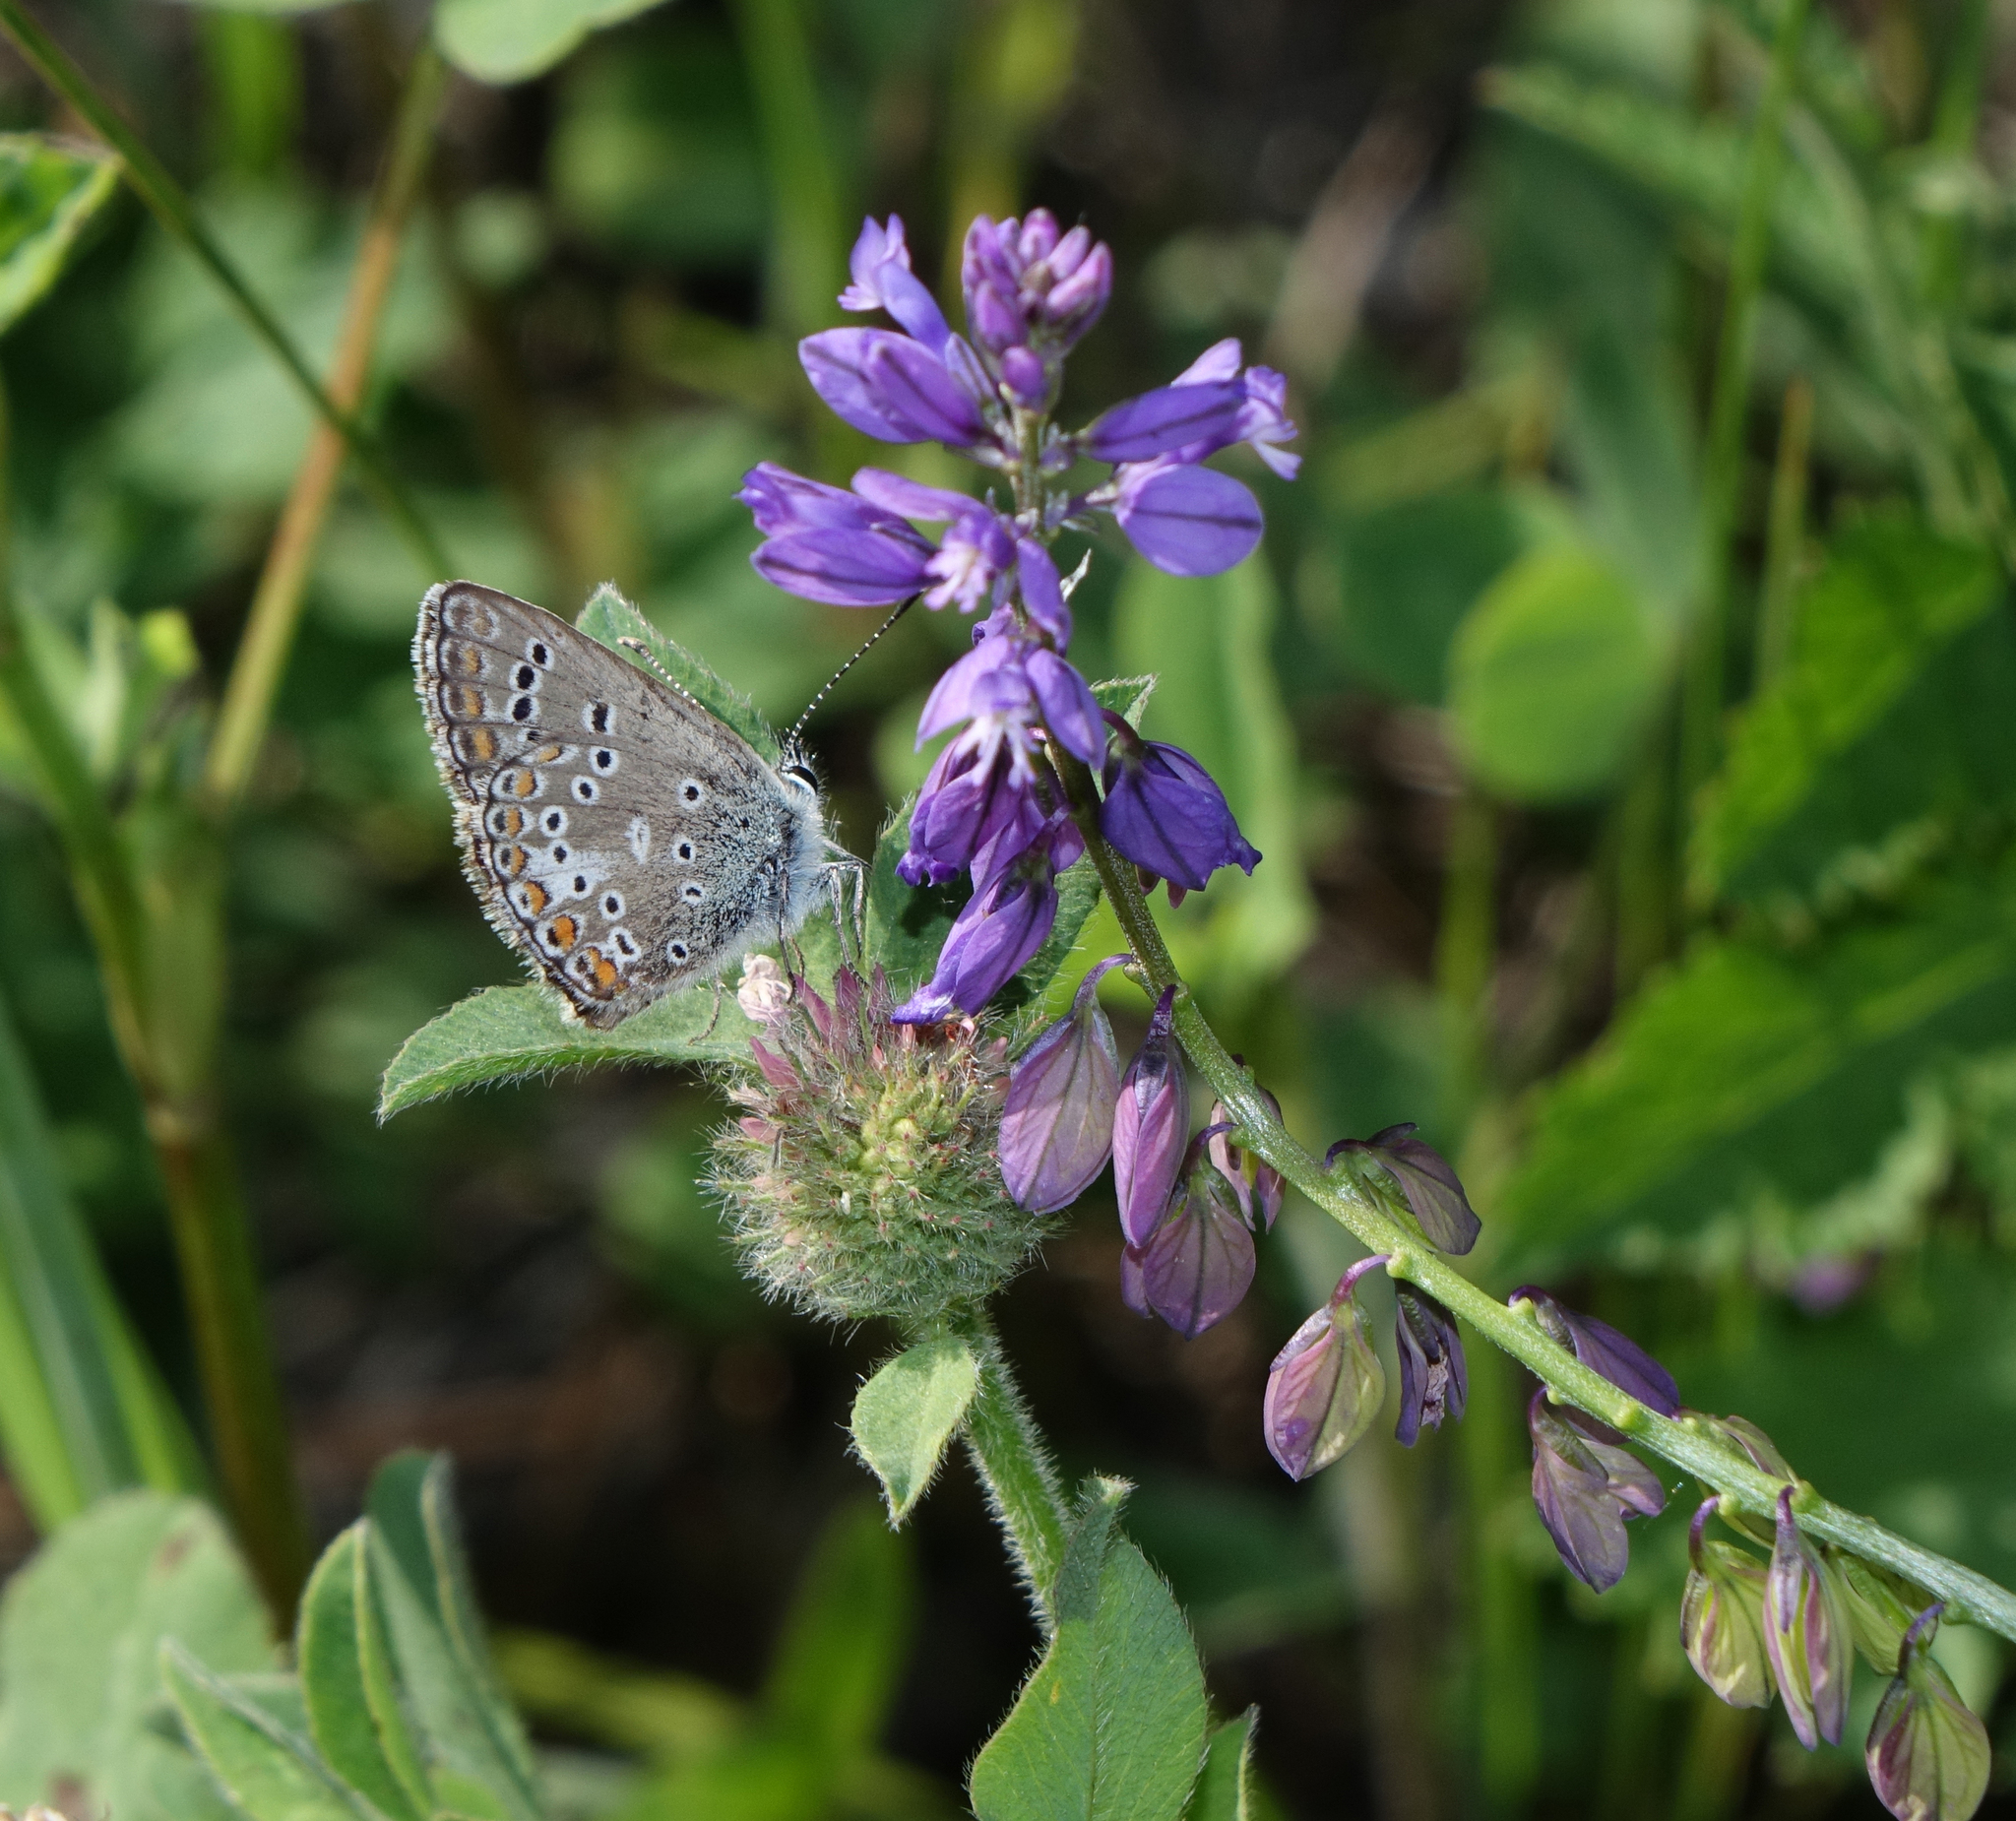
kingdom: Animalia
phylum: Arthropoda
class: Insecta
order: Lepidoptera
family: Lycaenidae
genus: Aricia
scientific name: Aricia artaxerxes
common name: Northern brown argus
